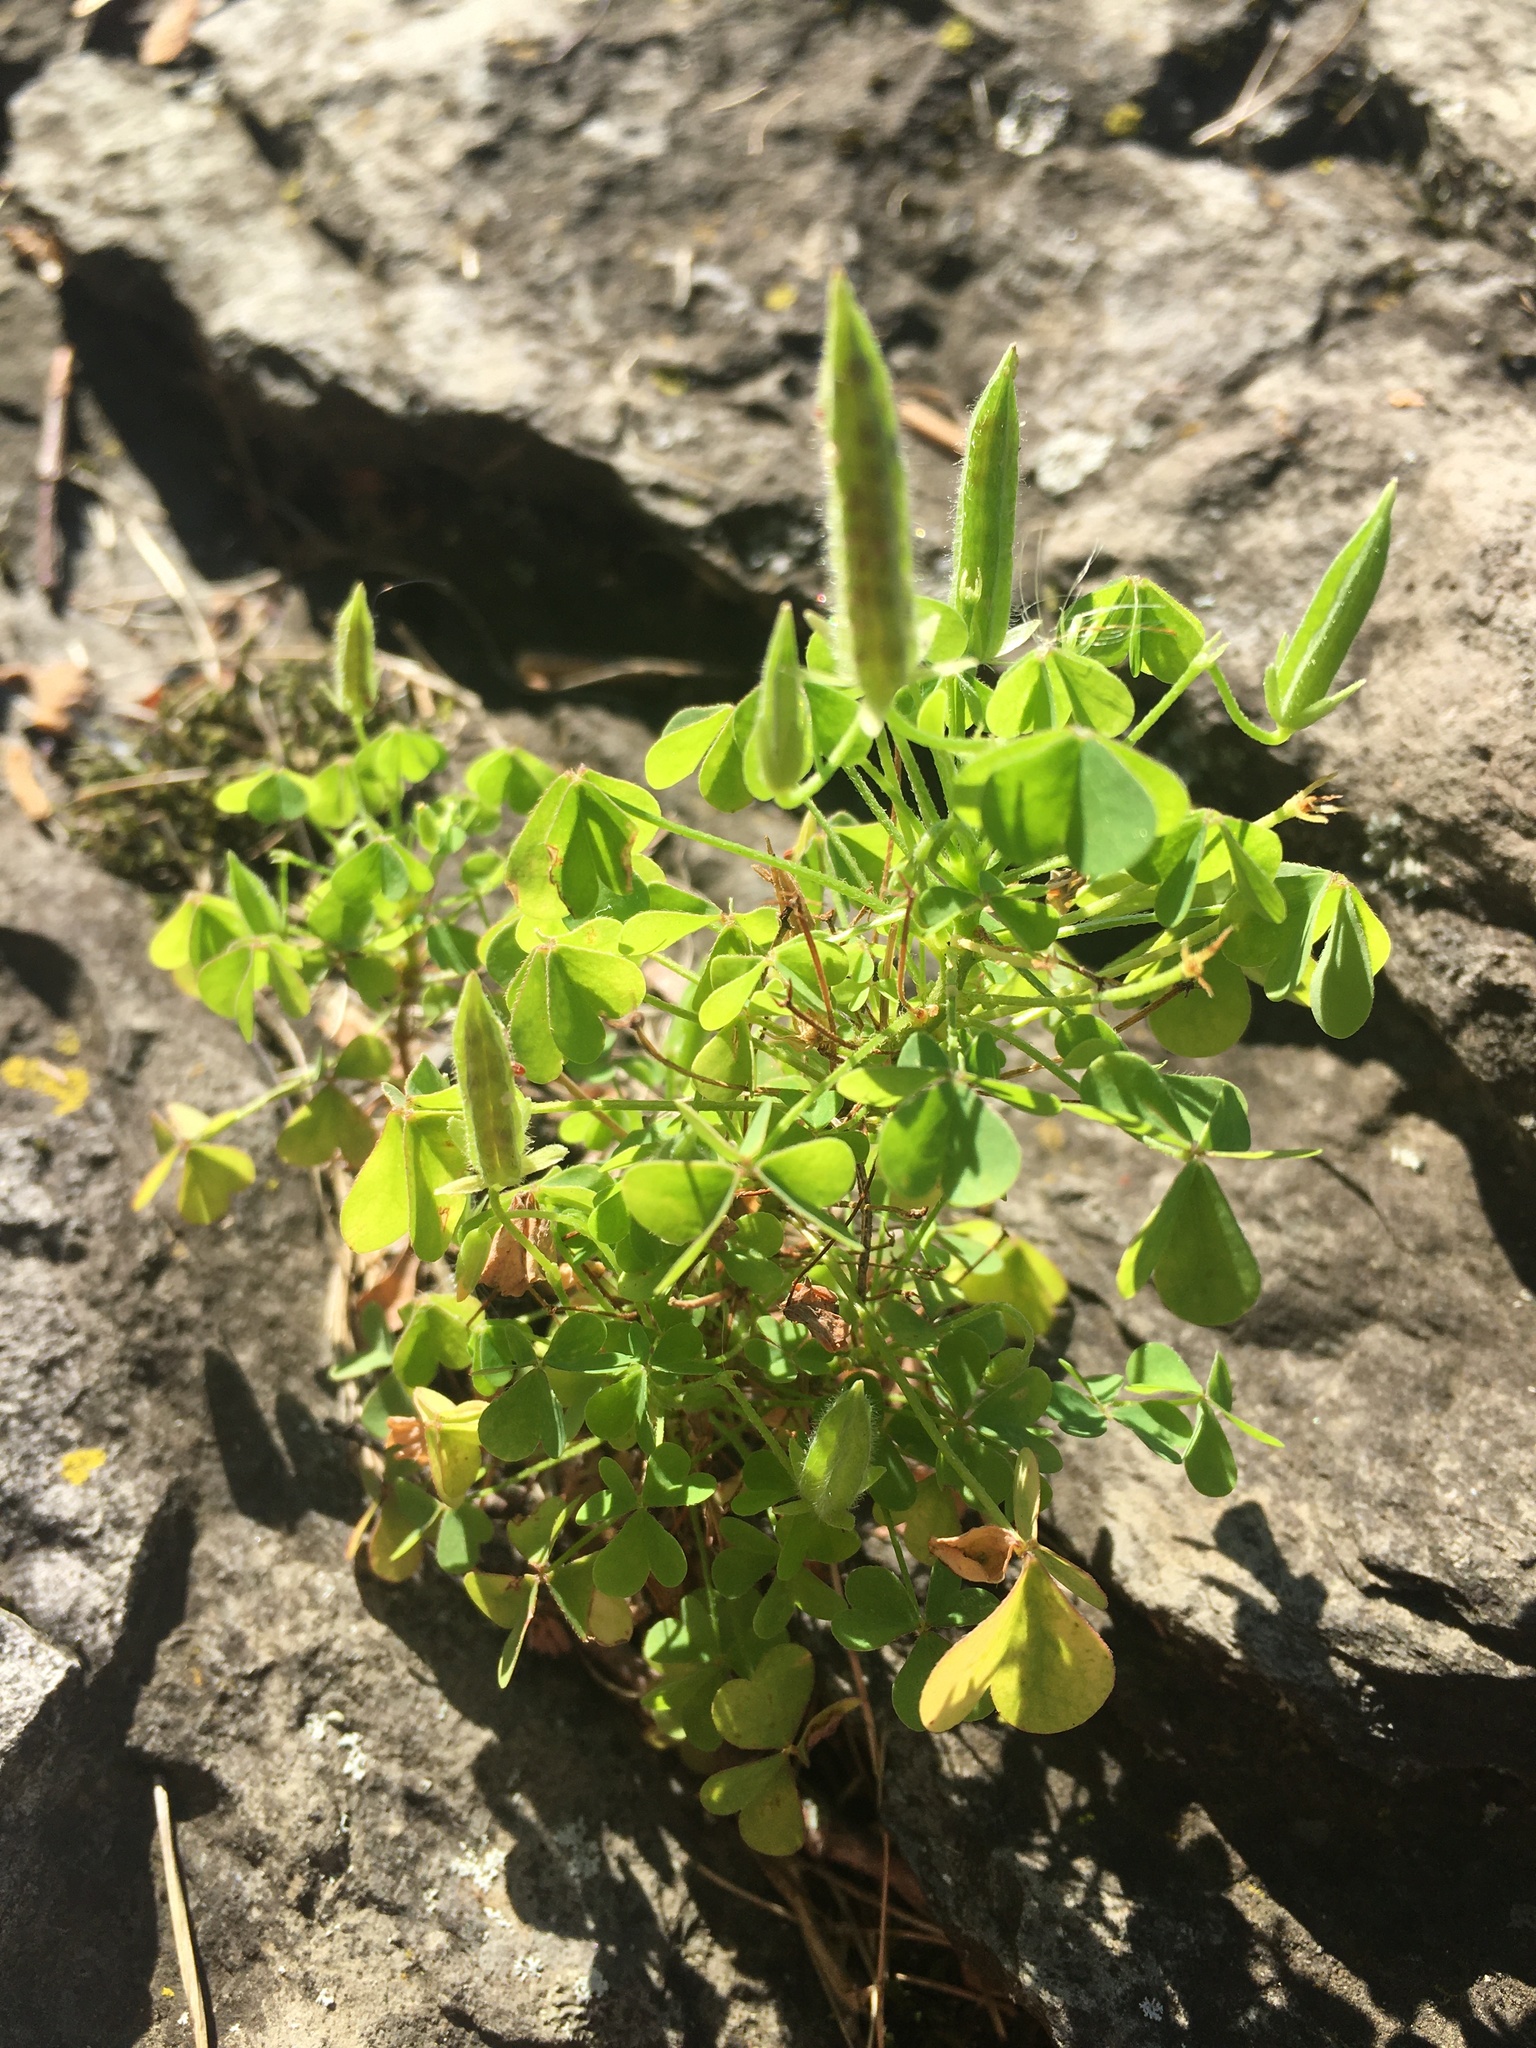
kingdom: Plantae
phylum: Tracheophyta
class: Magnoliopsida
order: Oxalidales
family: Oxalidaceae
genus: Oxalis
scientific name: Oxalis stricta
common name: Upright yellow-sorrel
